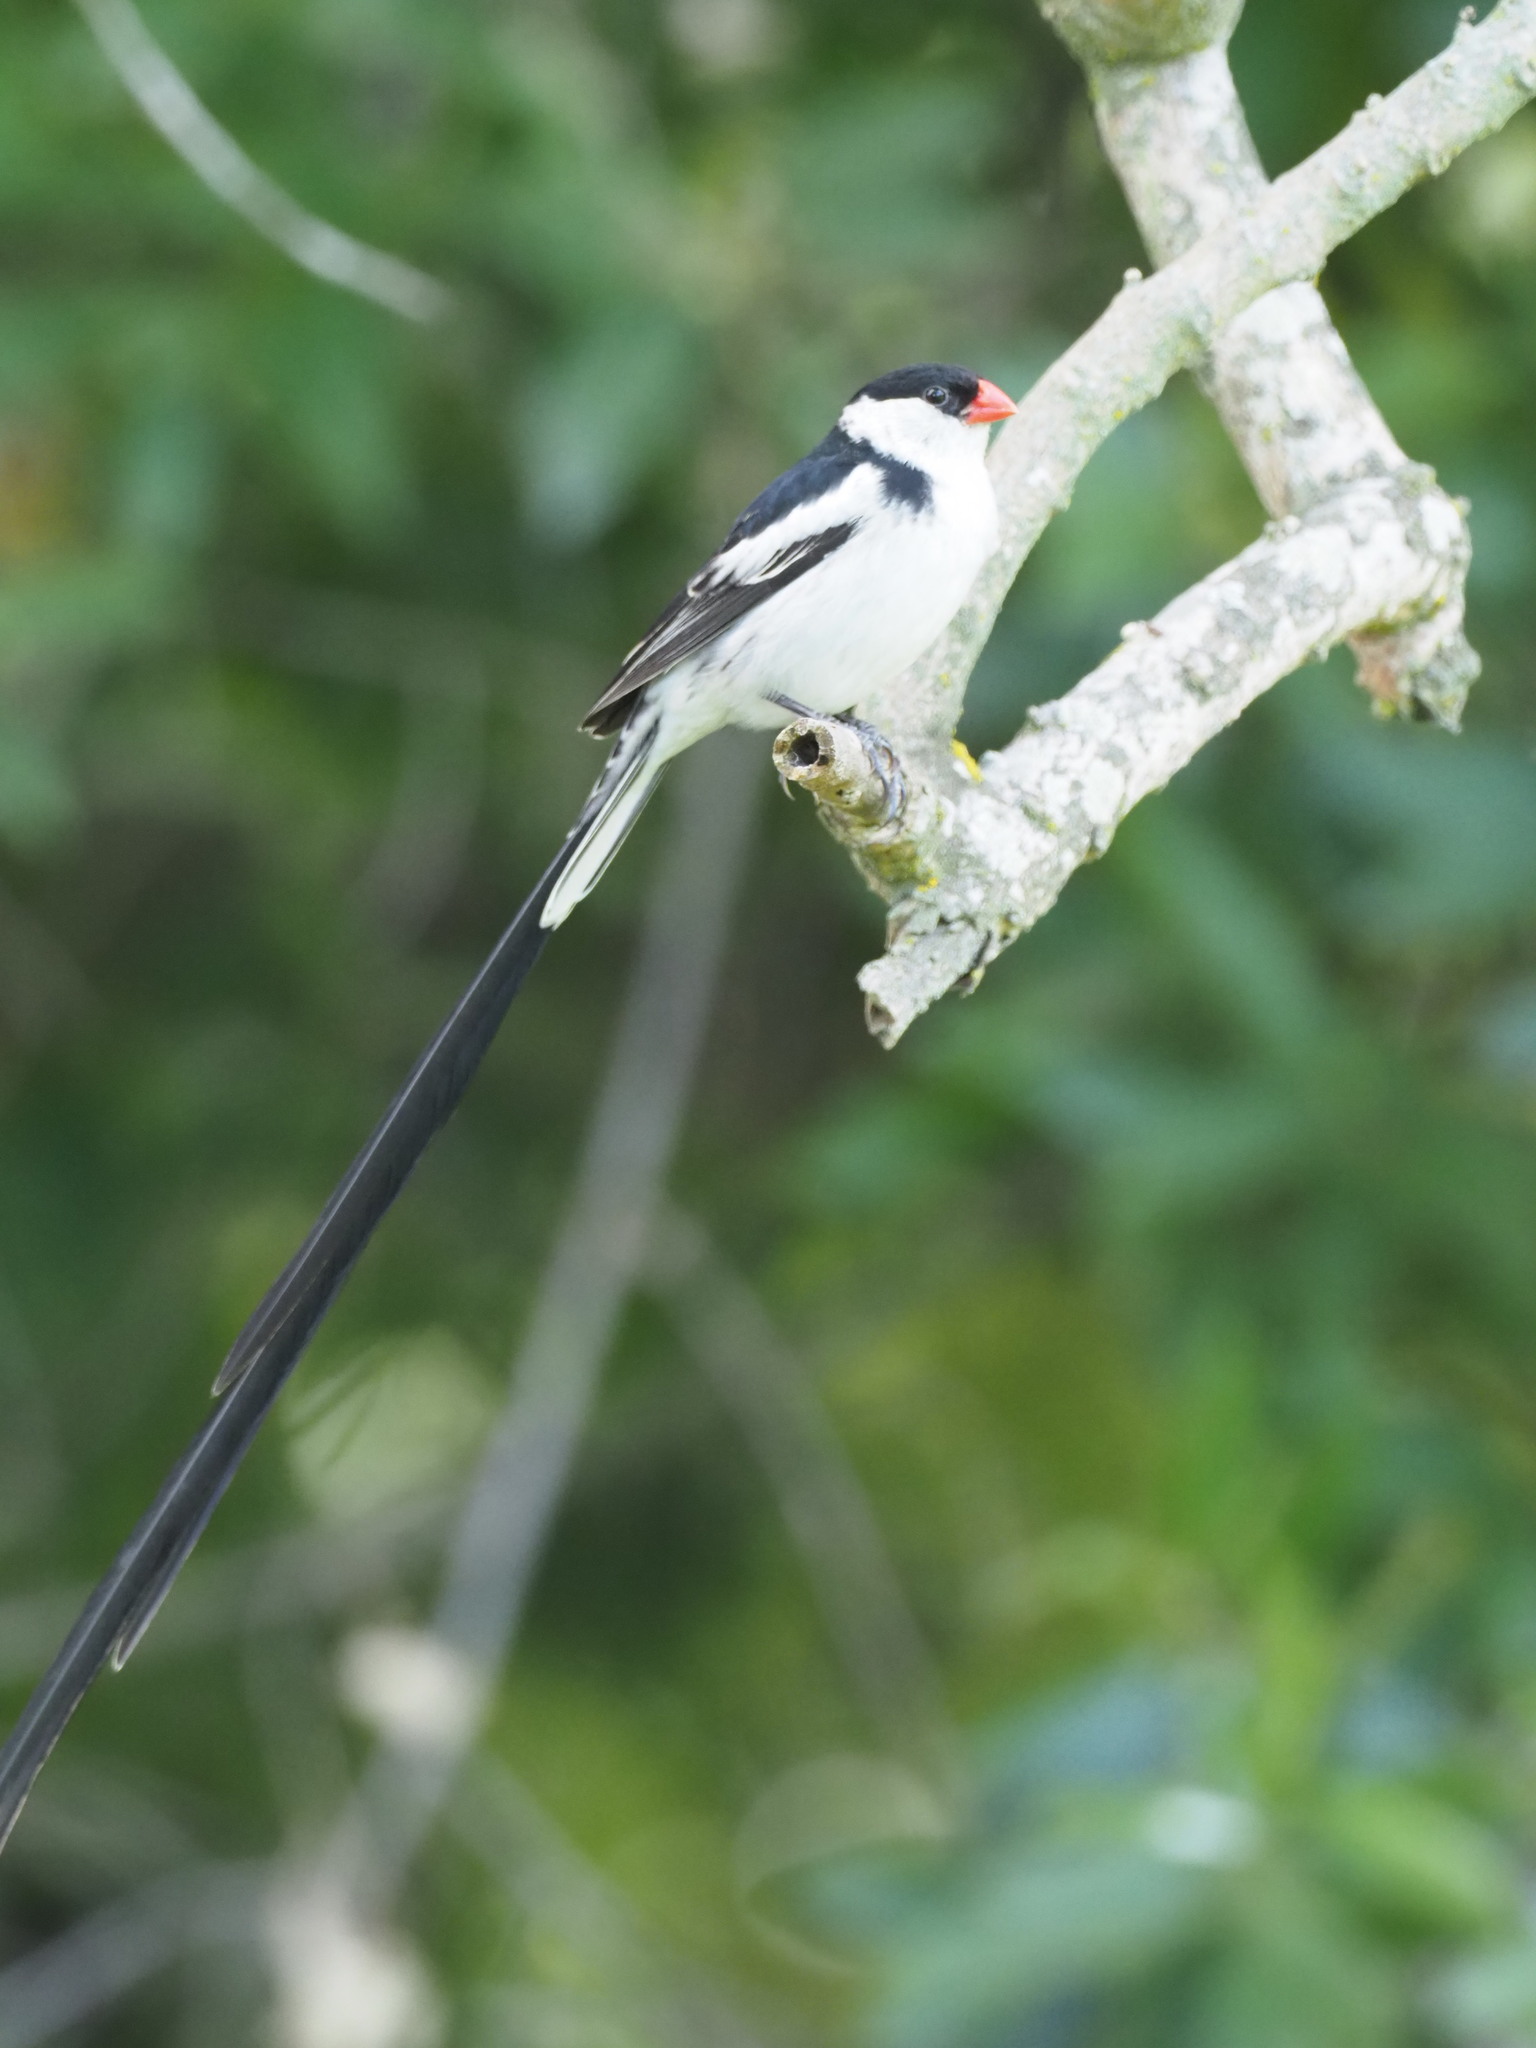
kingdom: Animalia
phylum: Chordata
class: Aves
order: Passeriformes
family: Viduidae
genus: Vidua
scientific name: Vidua macroura
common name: Pin-tailed whydah
